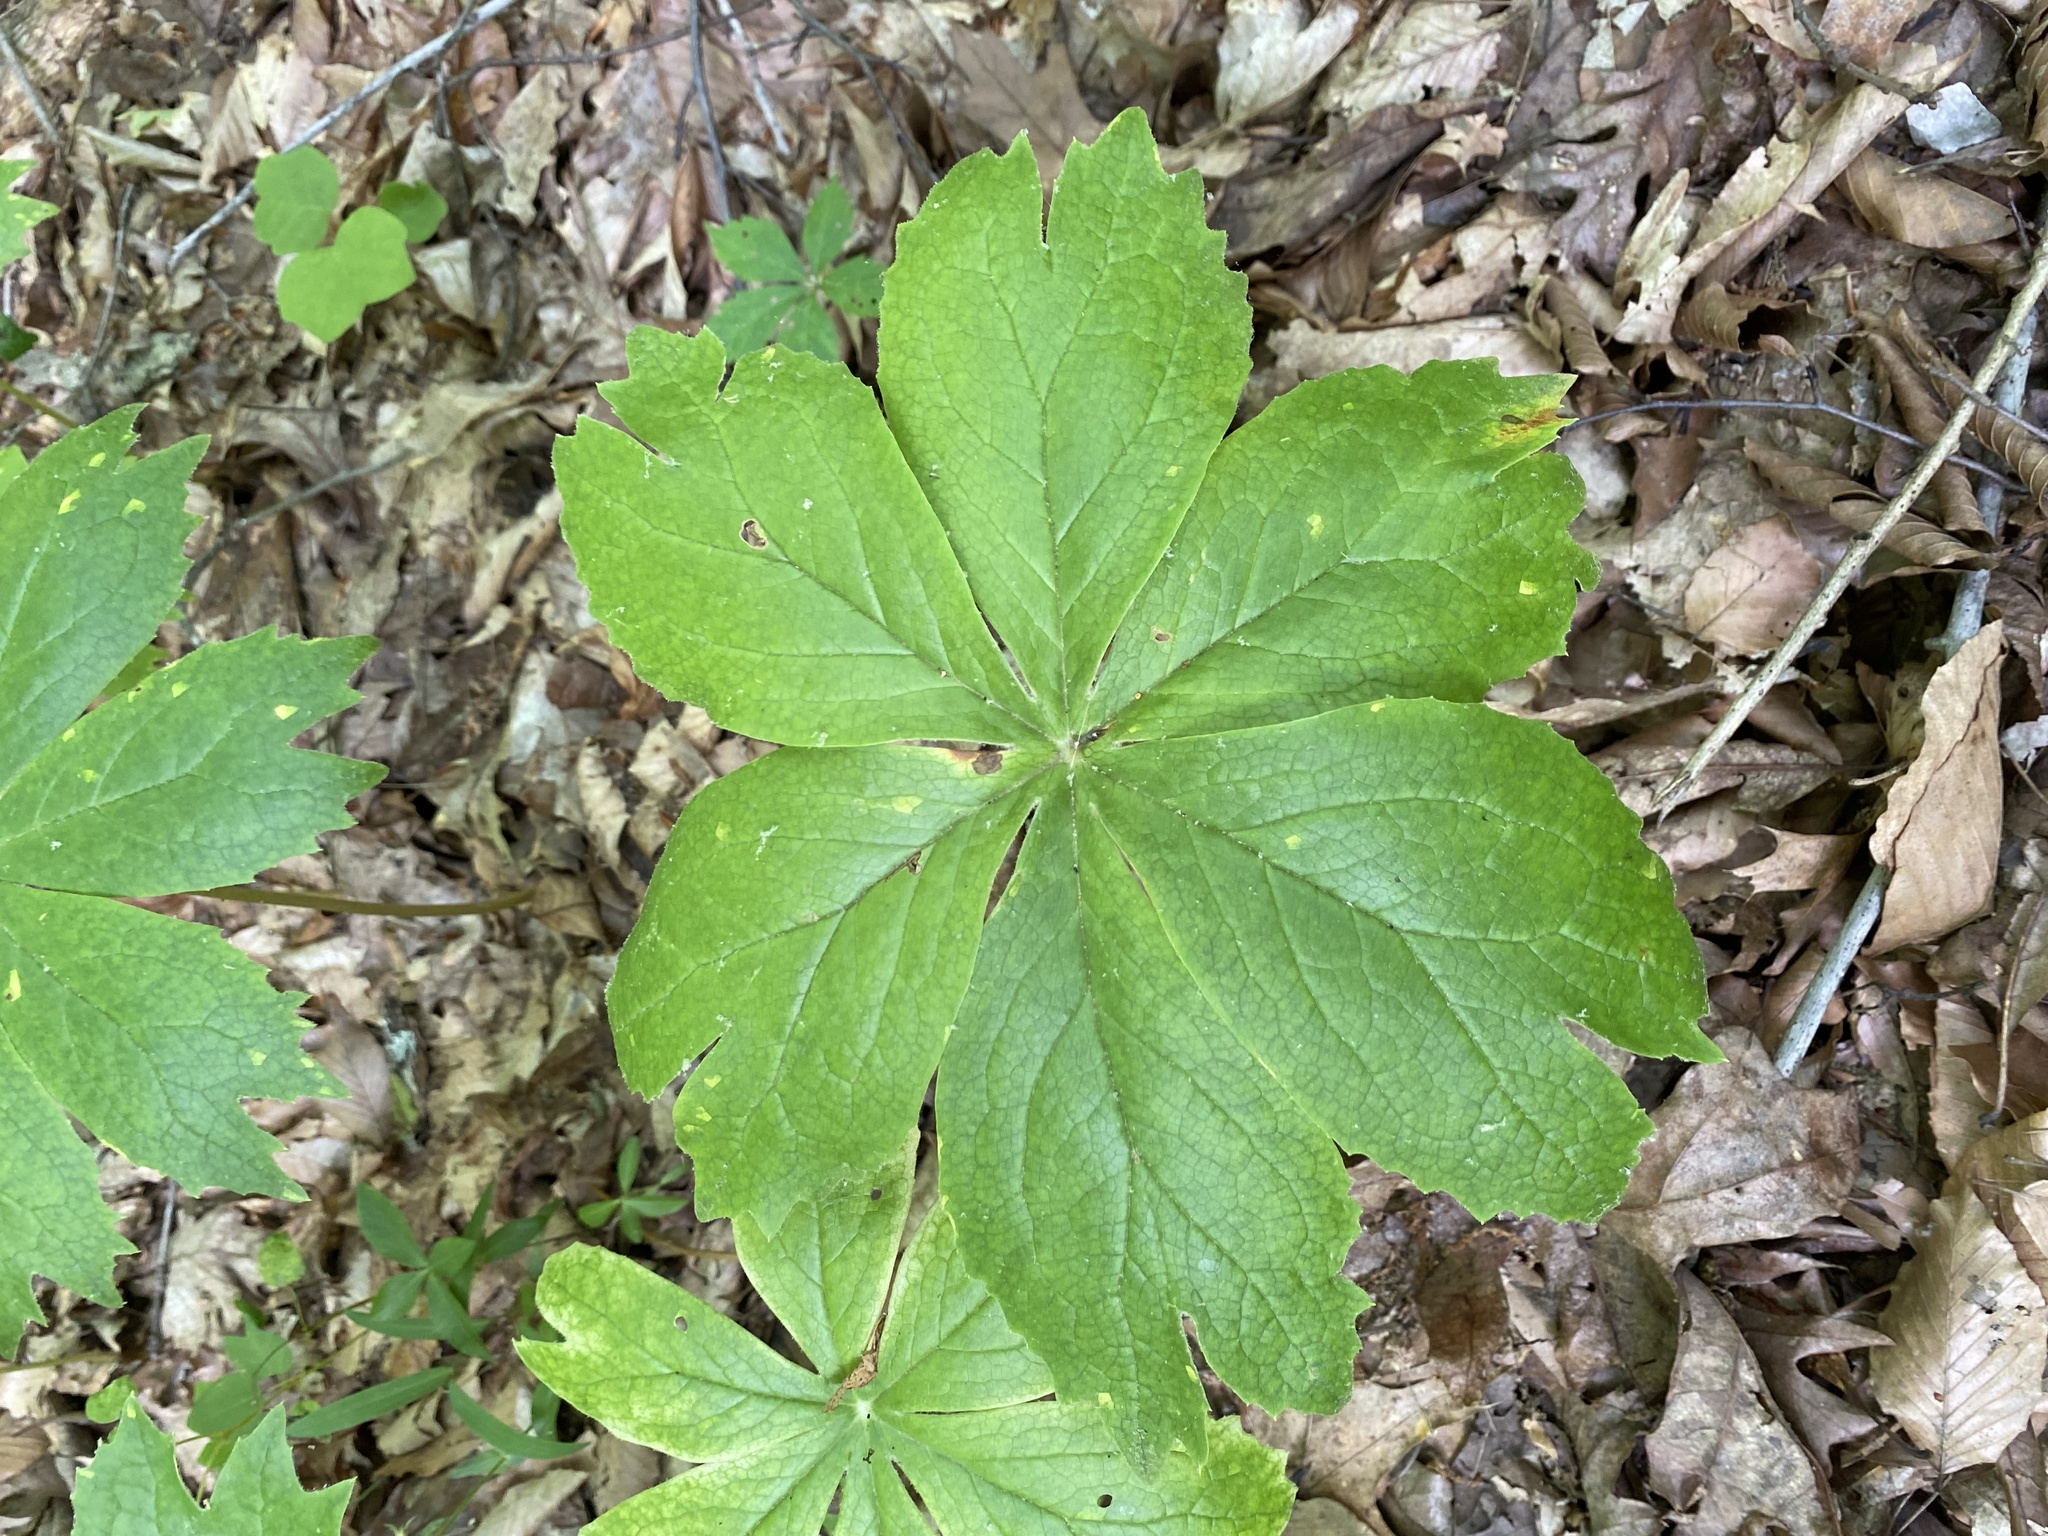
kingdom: Plantae
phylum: Tracheophyta
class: Magnoliopsida
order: Ranunculales
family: Berberidaceae
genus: Podophyllum
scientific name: Podophyllum peltatum
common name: Wild mandrake
